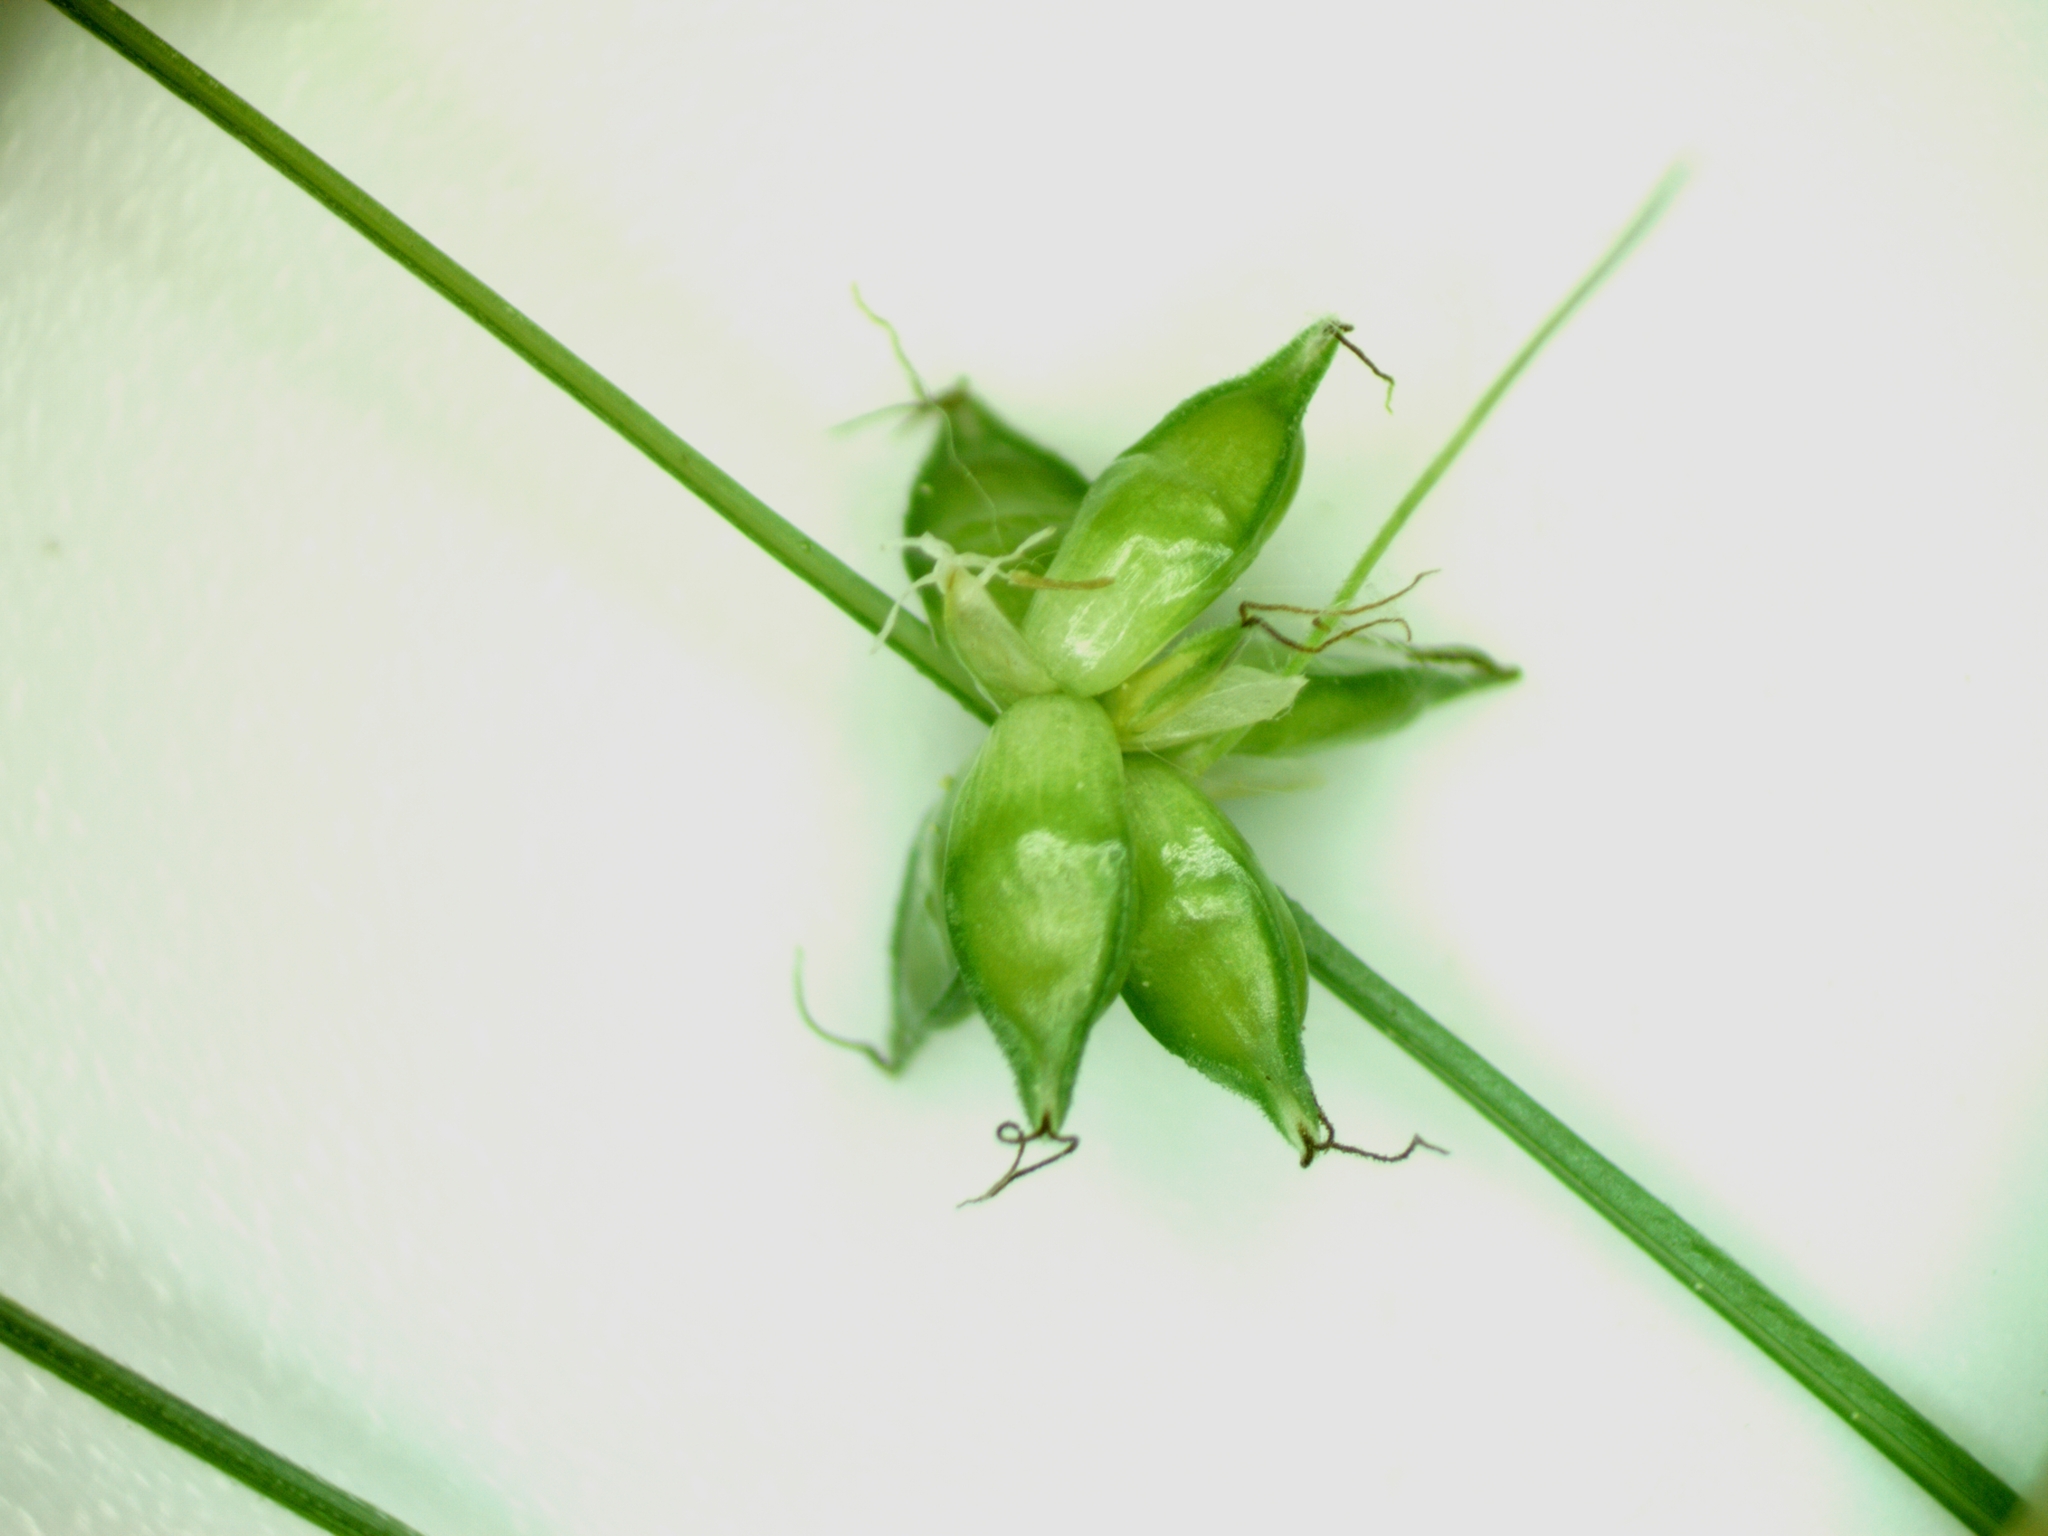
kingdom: Plantae
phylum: Tracheophyta
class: Liliopsida
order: Poales
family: Cyperaceae
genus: Carex
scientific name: Carex radiata
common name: Eastern star sedge
